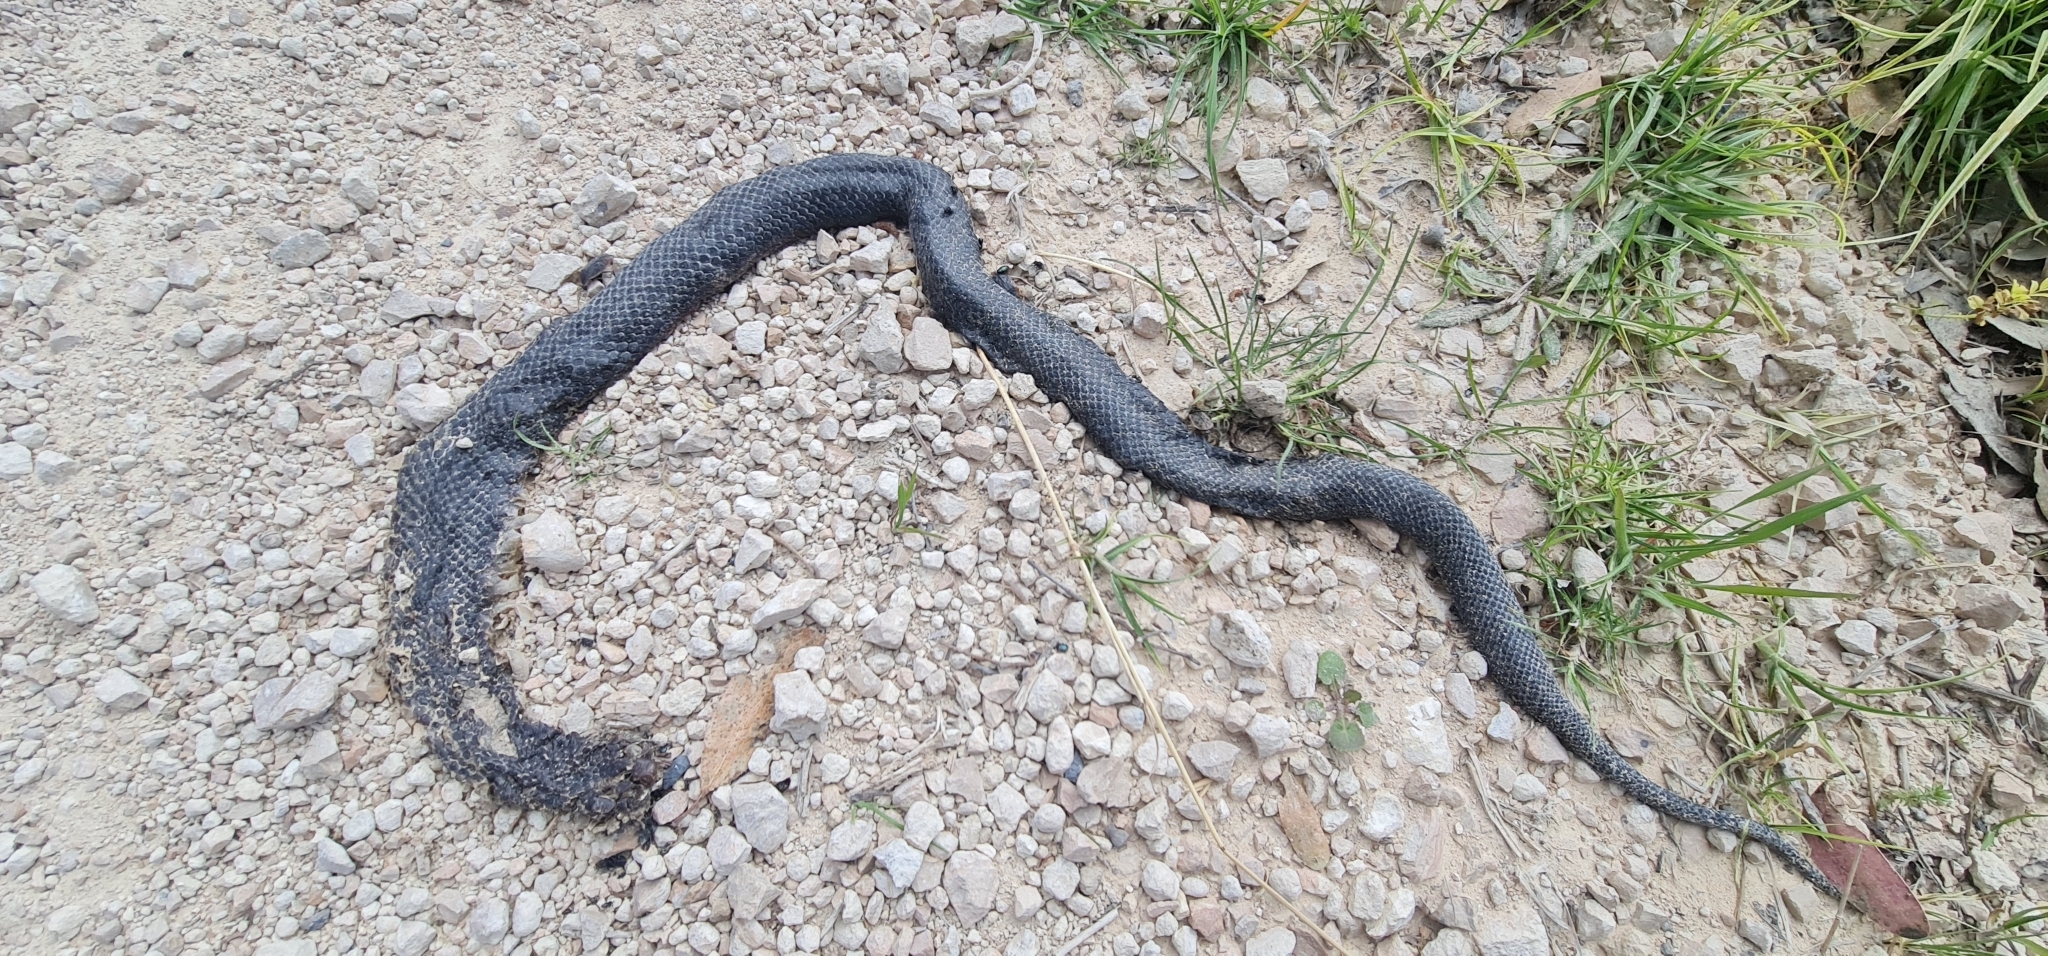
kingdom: Animalia
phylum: Chordata
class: Squamata
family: Elapidae
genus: Pseudechis
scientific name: Pseudechis porphyriacus
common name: Australian black snake
